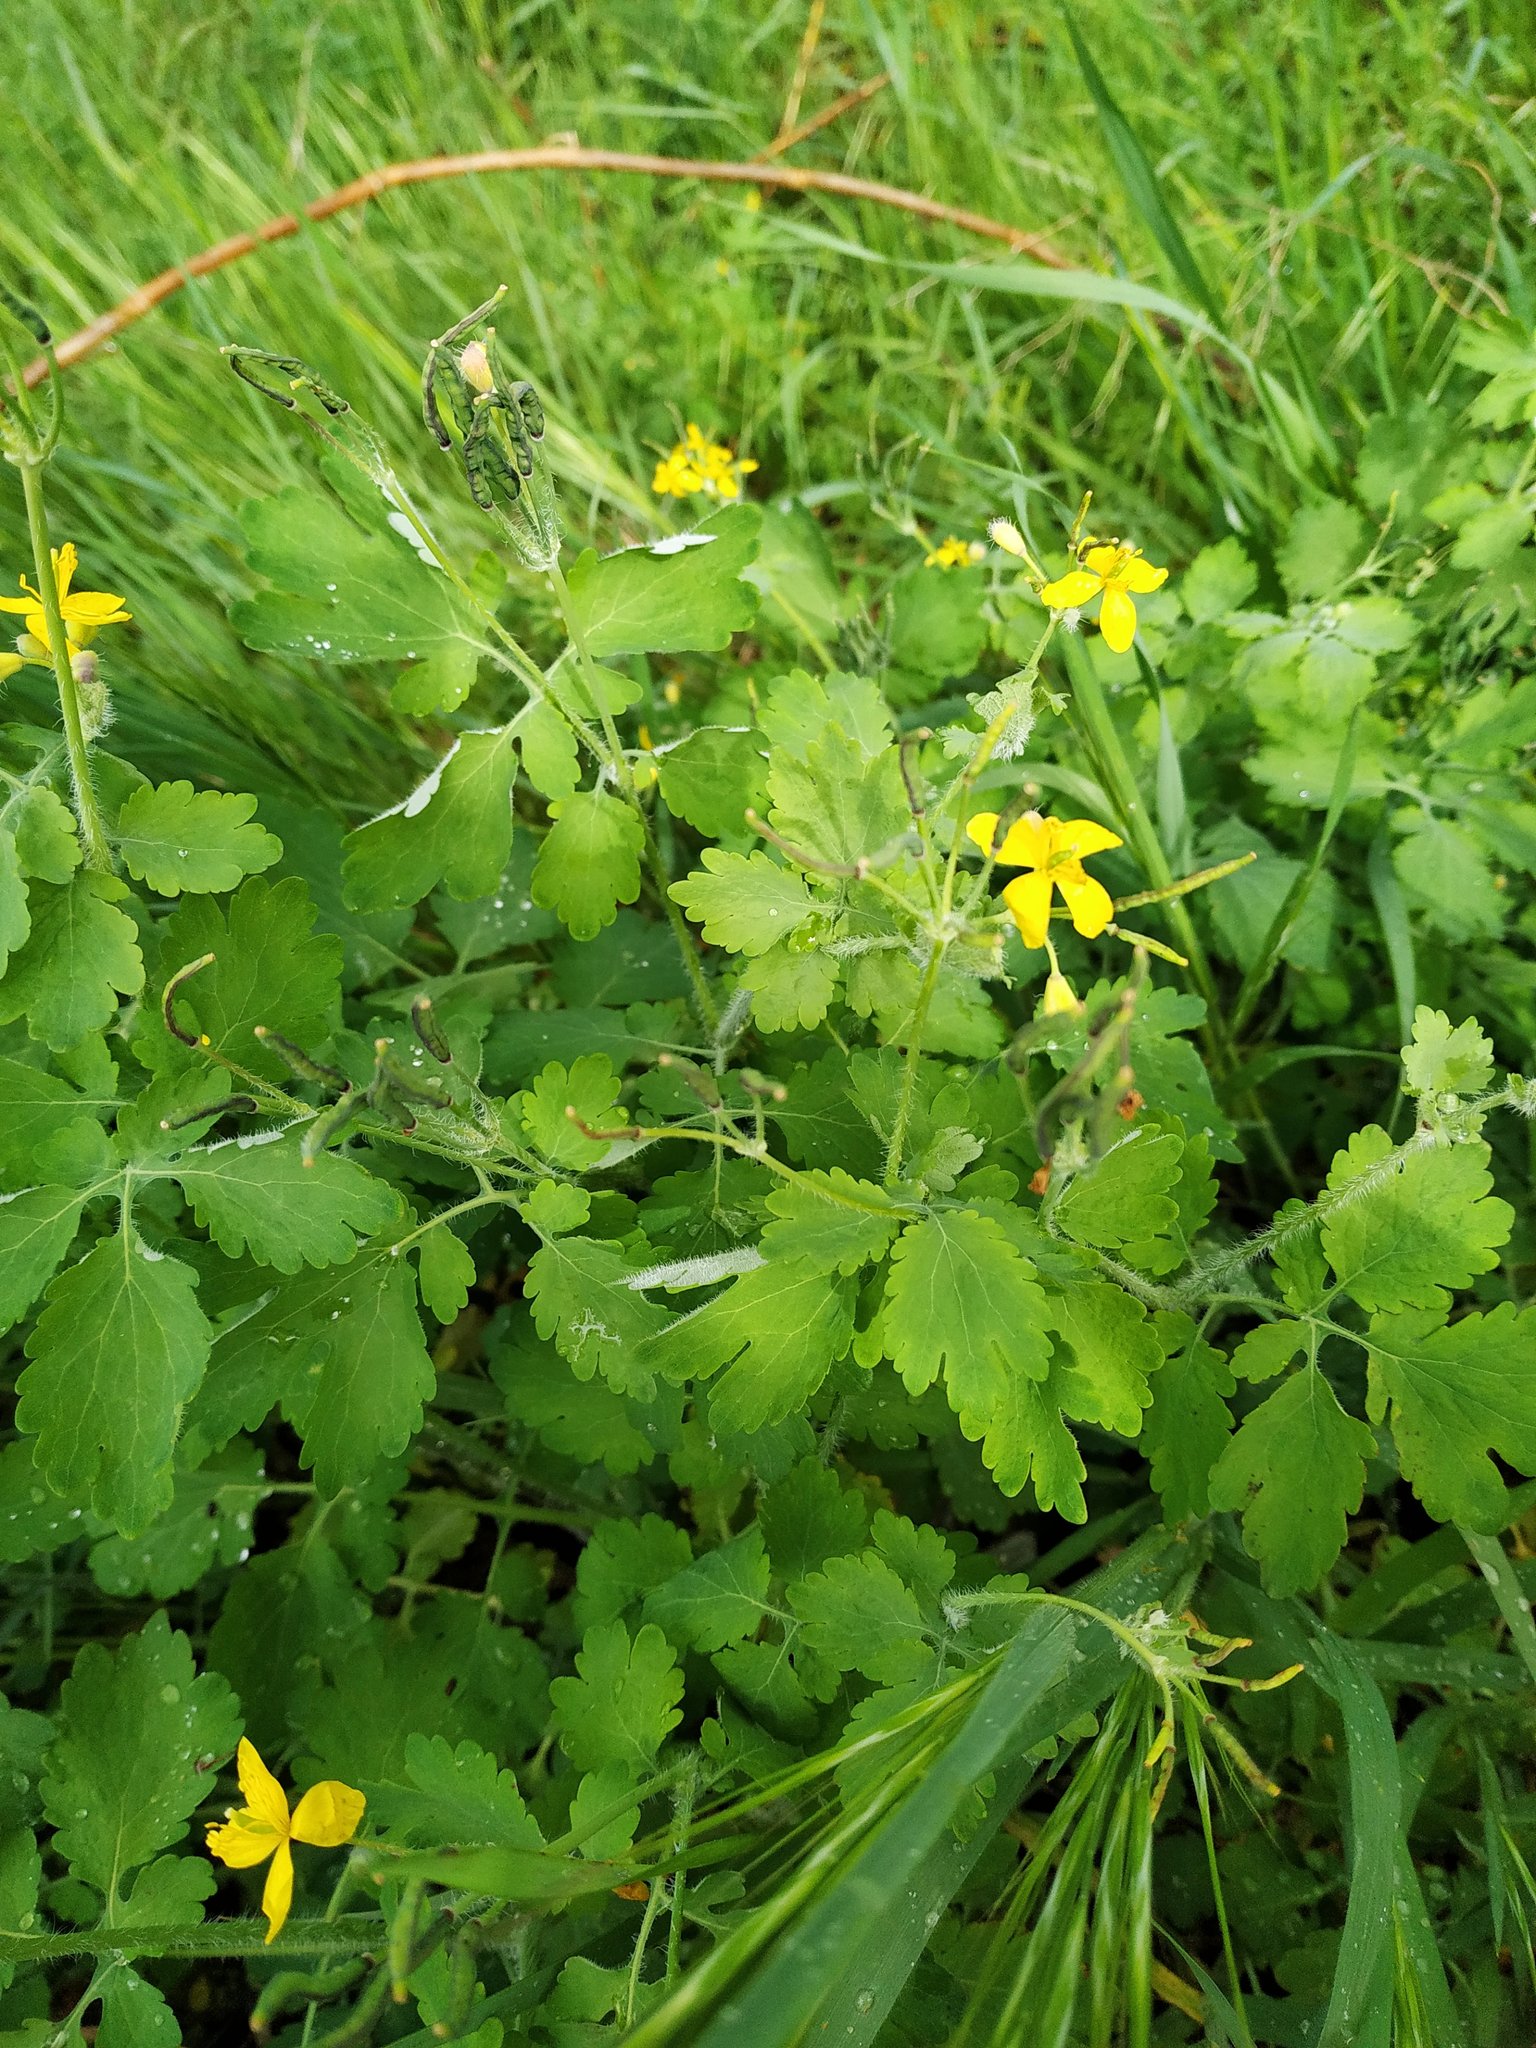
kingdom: Plantae
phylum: Tracheophyta
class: Magnoliopsida
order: Ranunculales
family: Papaveraceae
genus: Chelidonium
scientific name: Chelidonium majus
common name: Greater celandine
